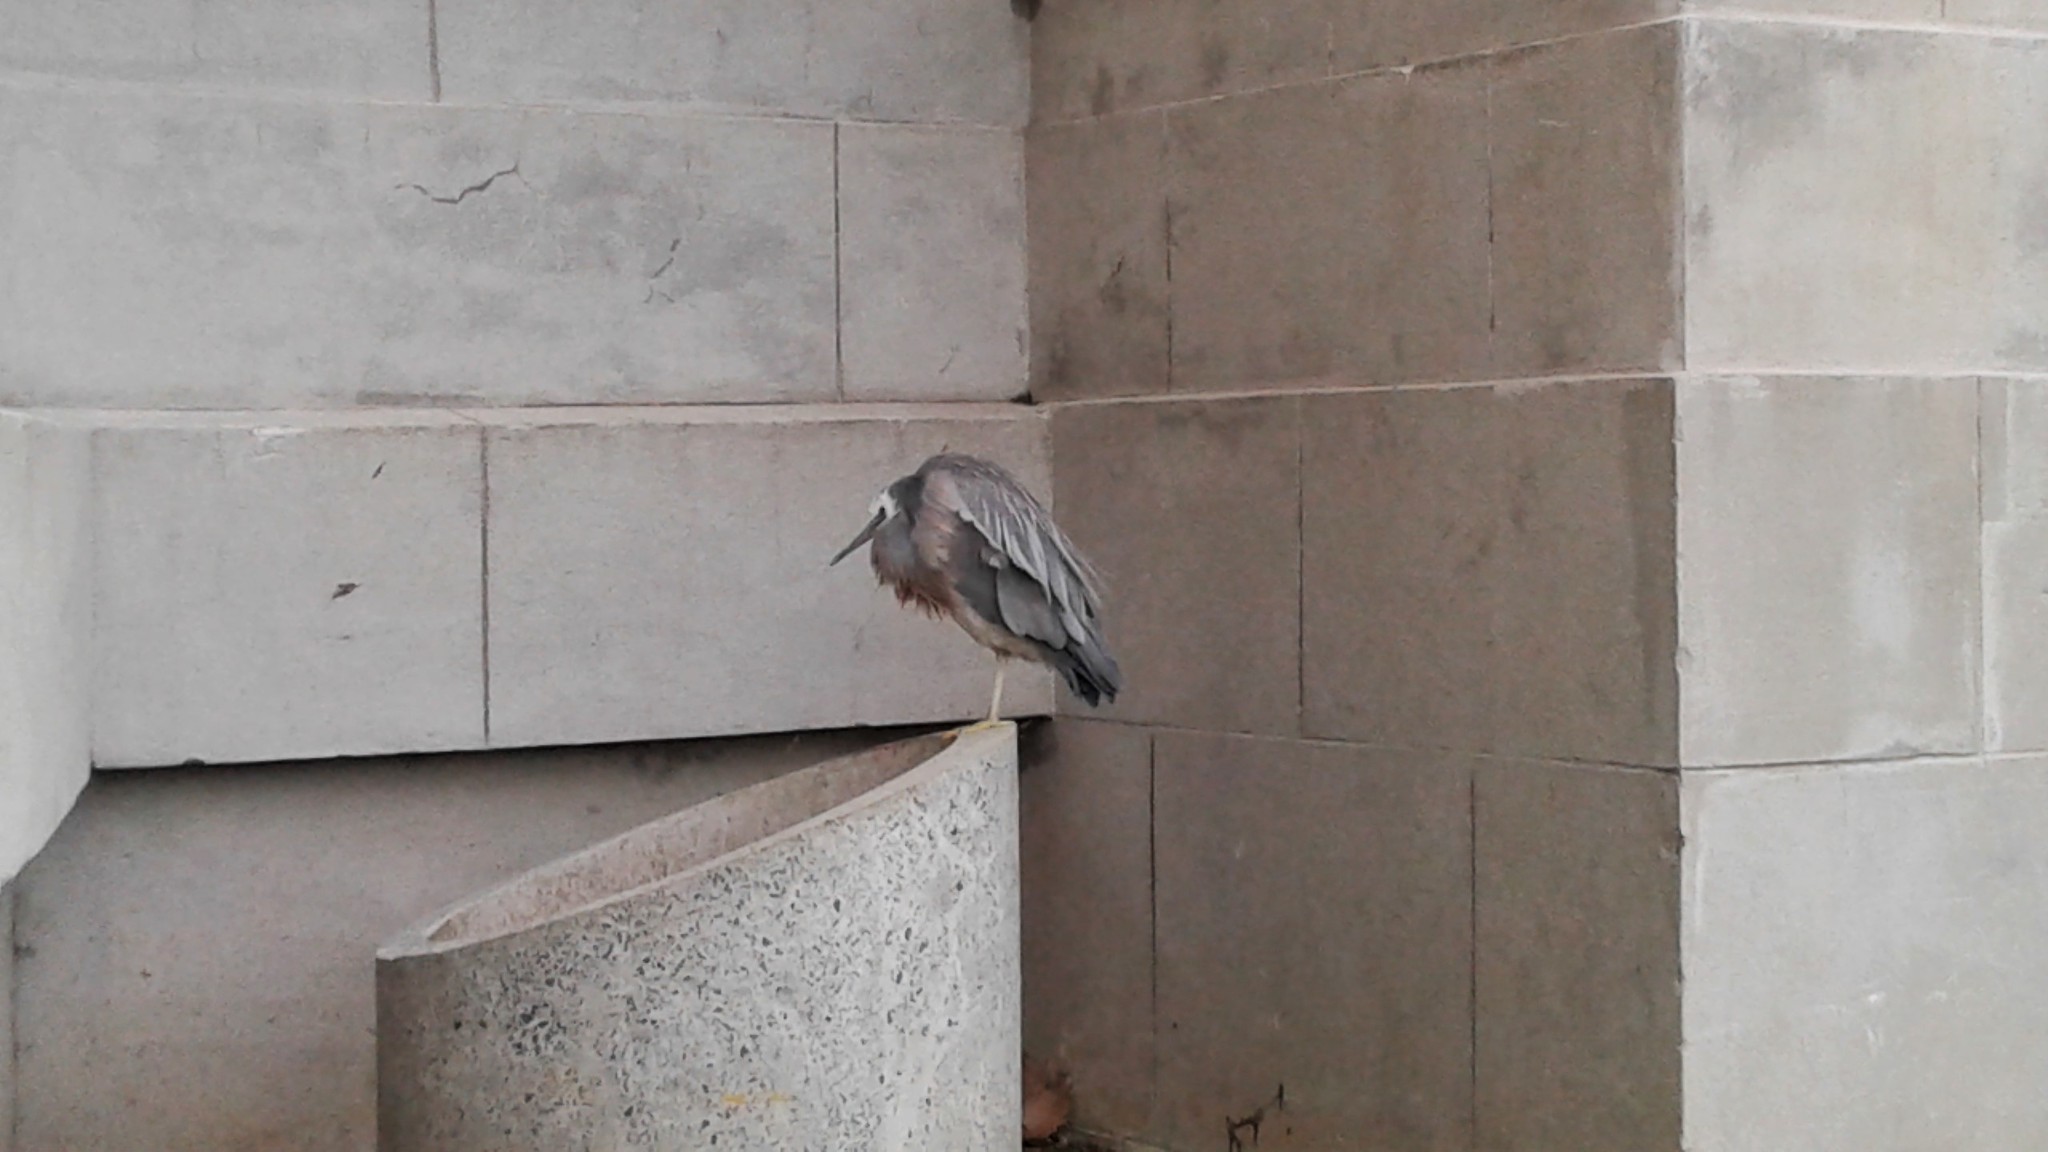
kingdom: Animalia
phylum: Chordata
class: Aves
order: Pelecaniformes
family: Ardeidae
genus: Egretta
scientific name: Egretta novaehollandiae
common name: White-faced heron
